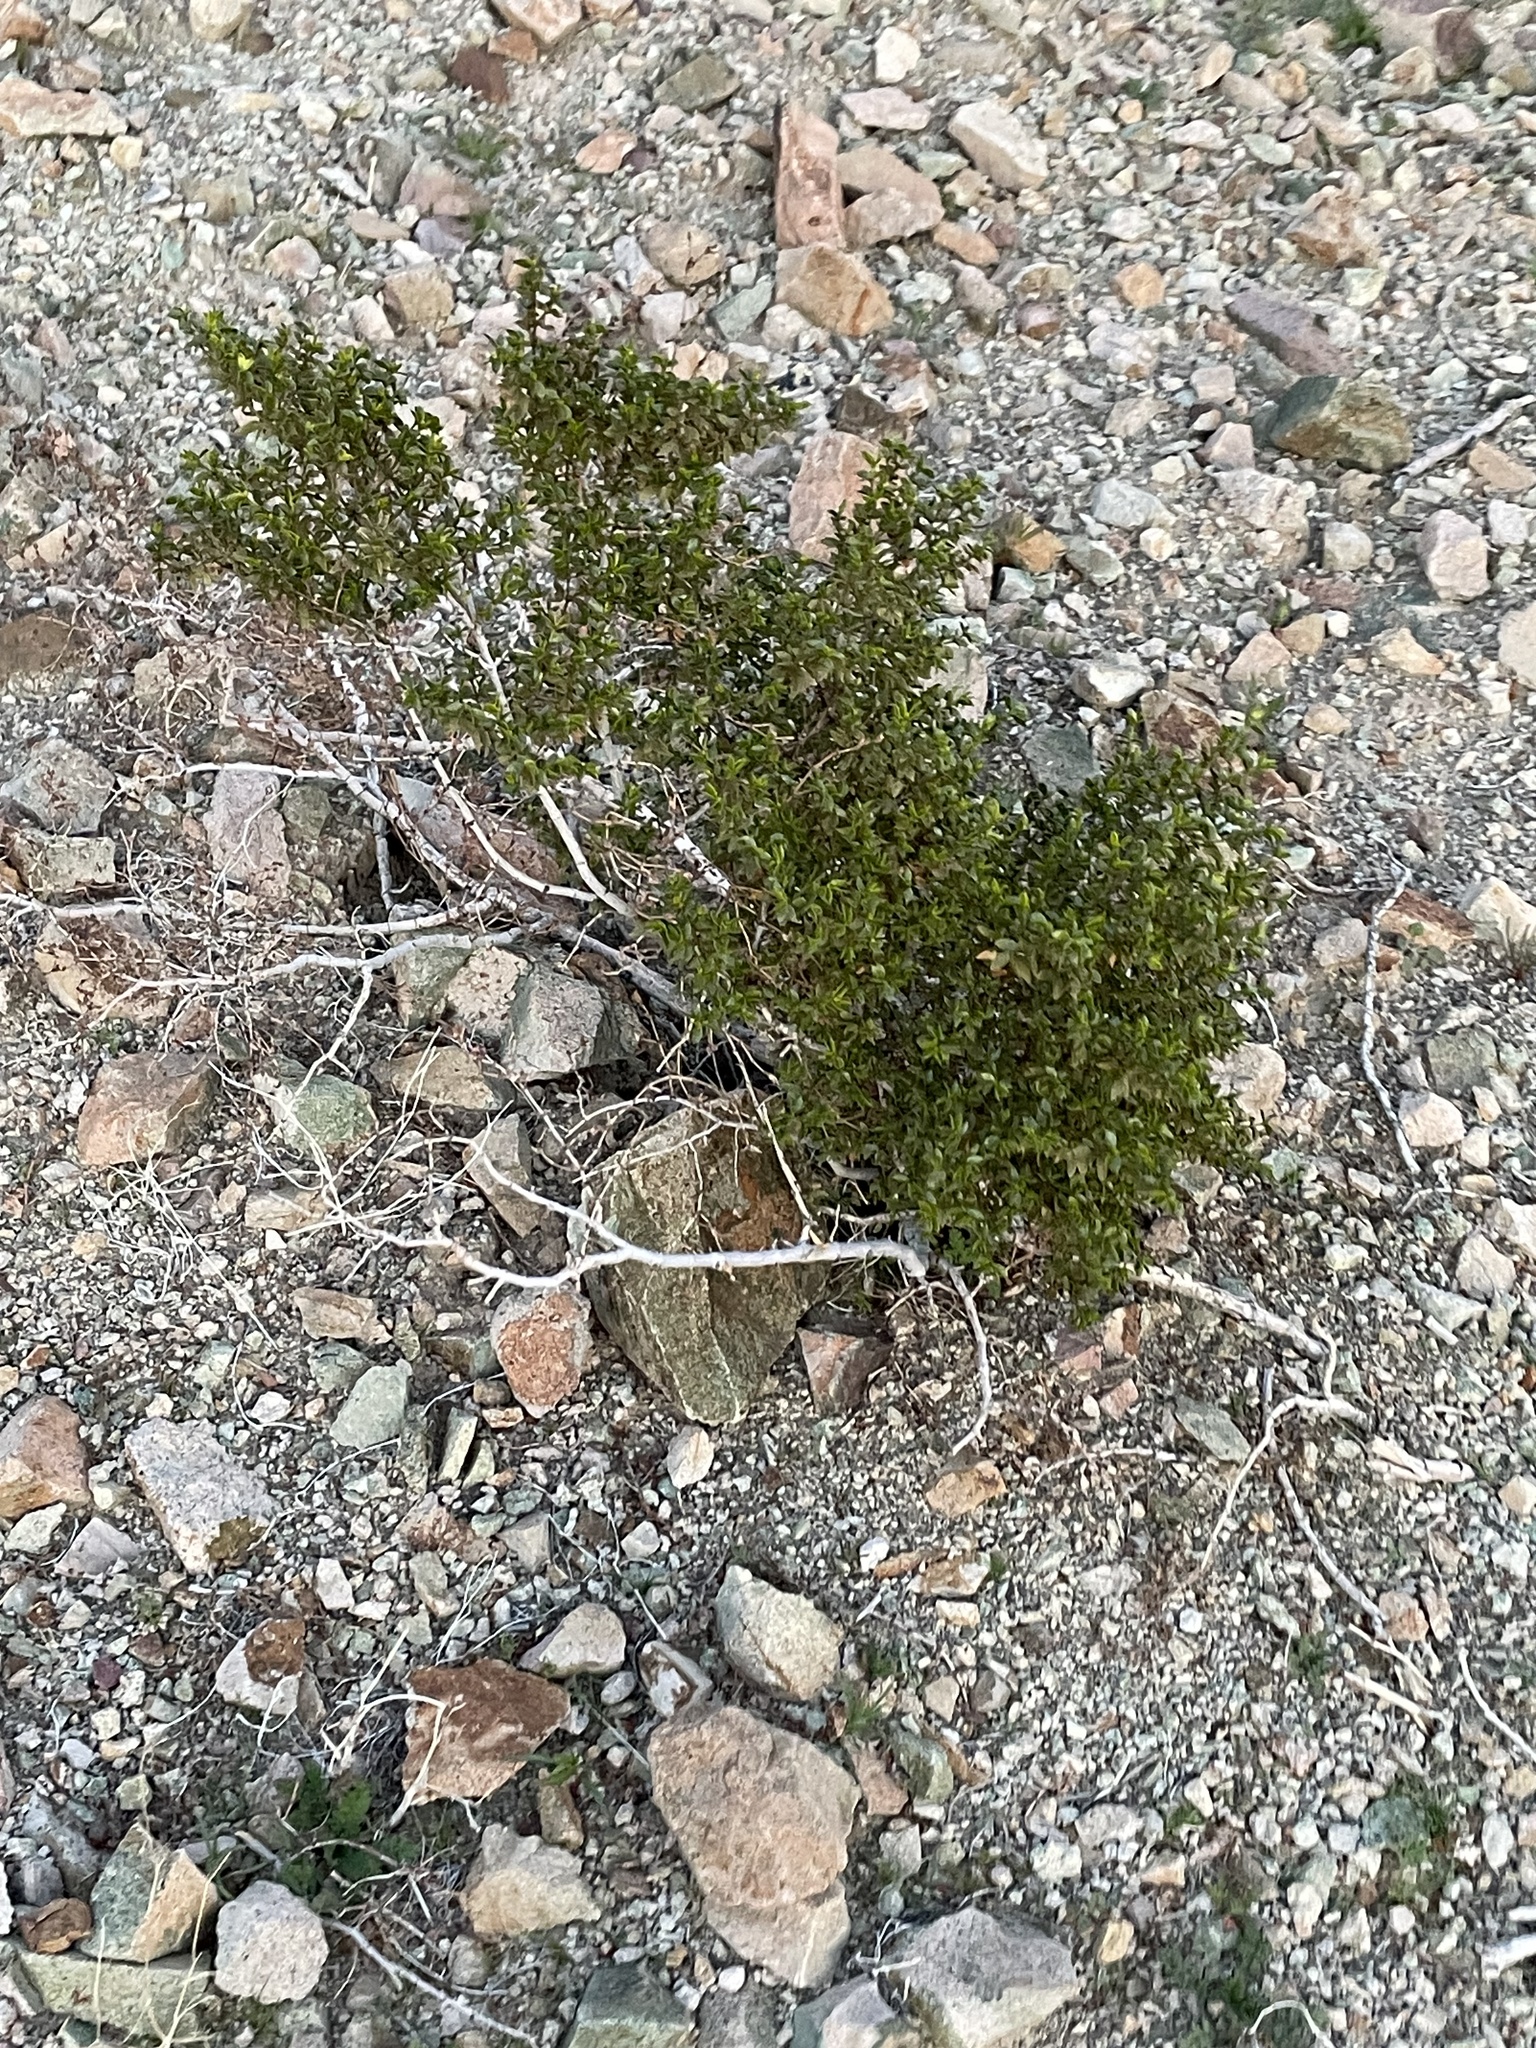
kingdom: Plantae
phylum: Tracheophyta
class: Magnoliopsida
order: Zygophyllales
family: Zygophyllaceae
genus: Larrea
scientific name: Larrea tridentata
